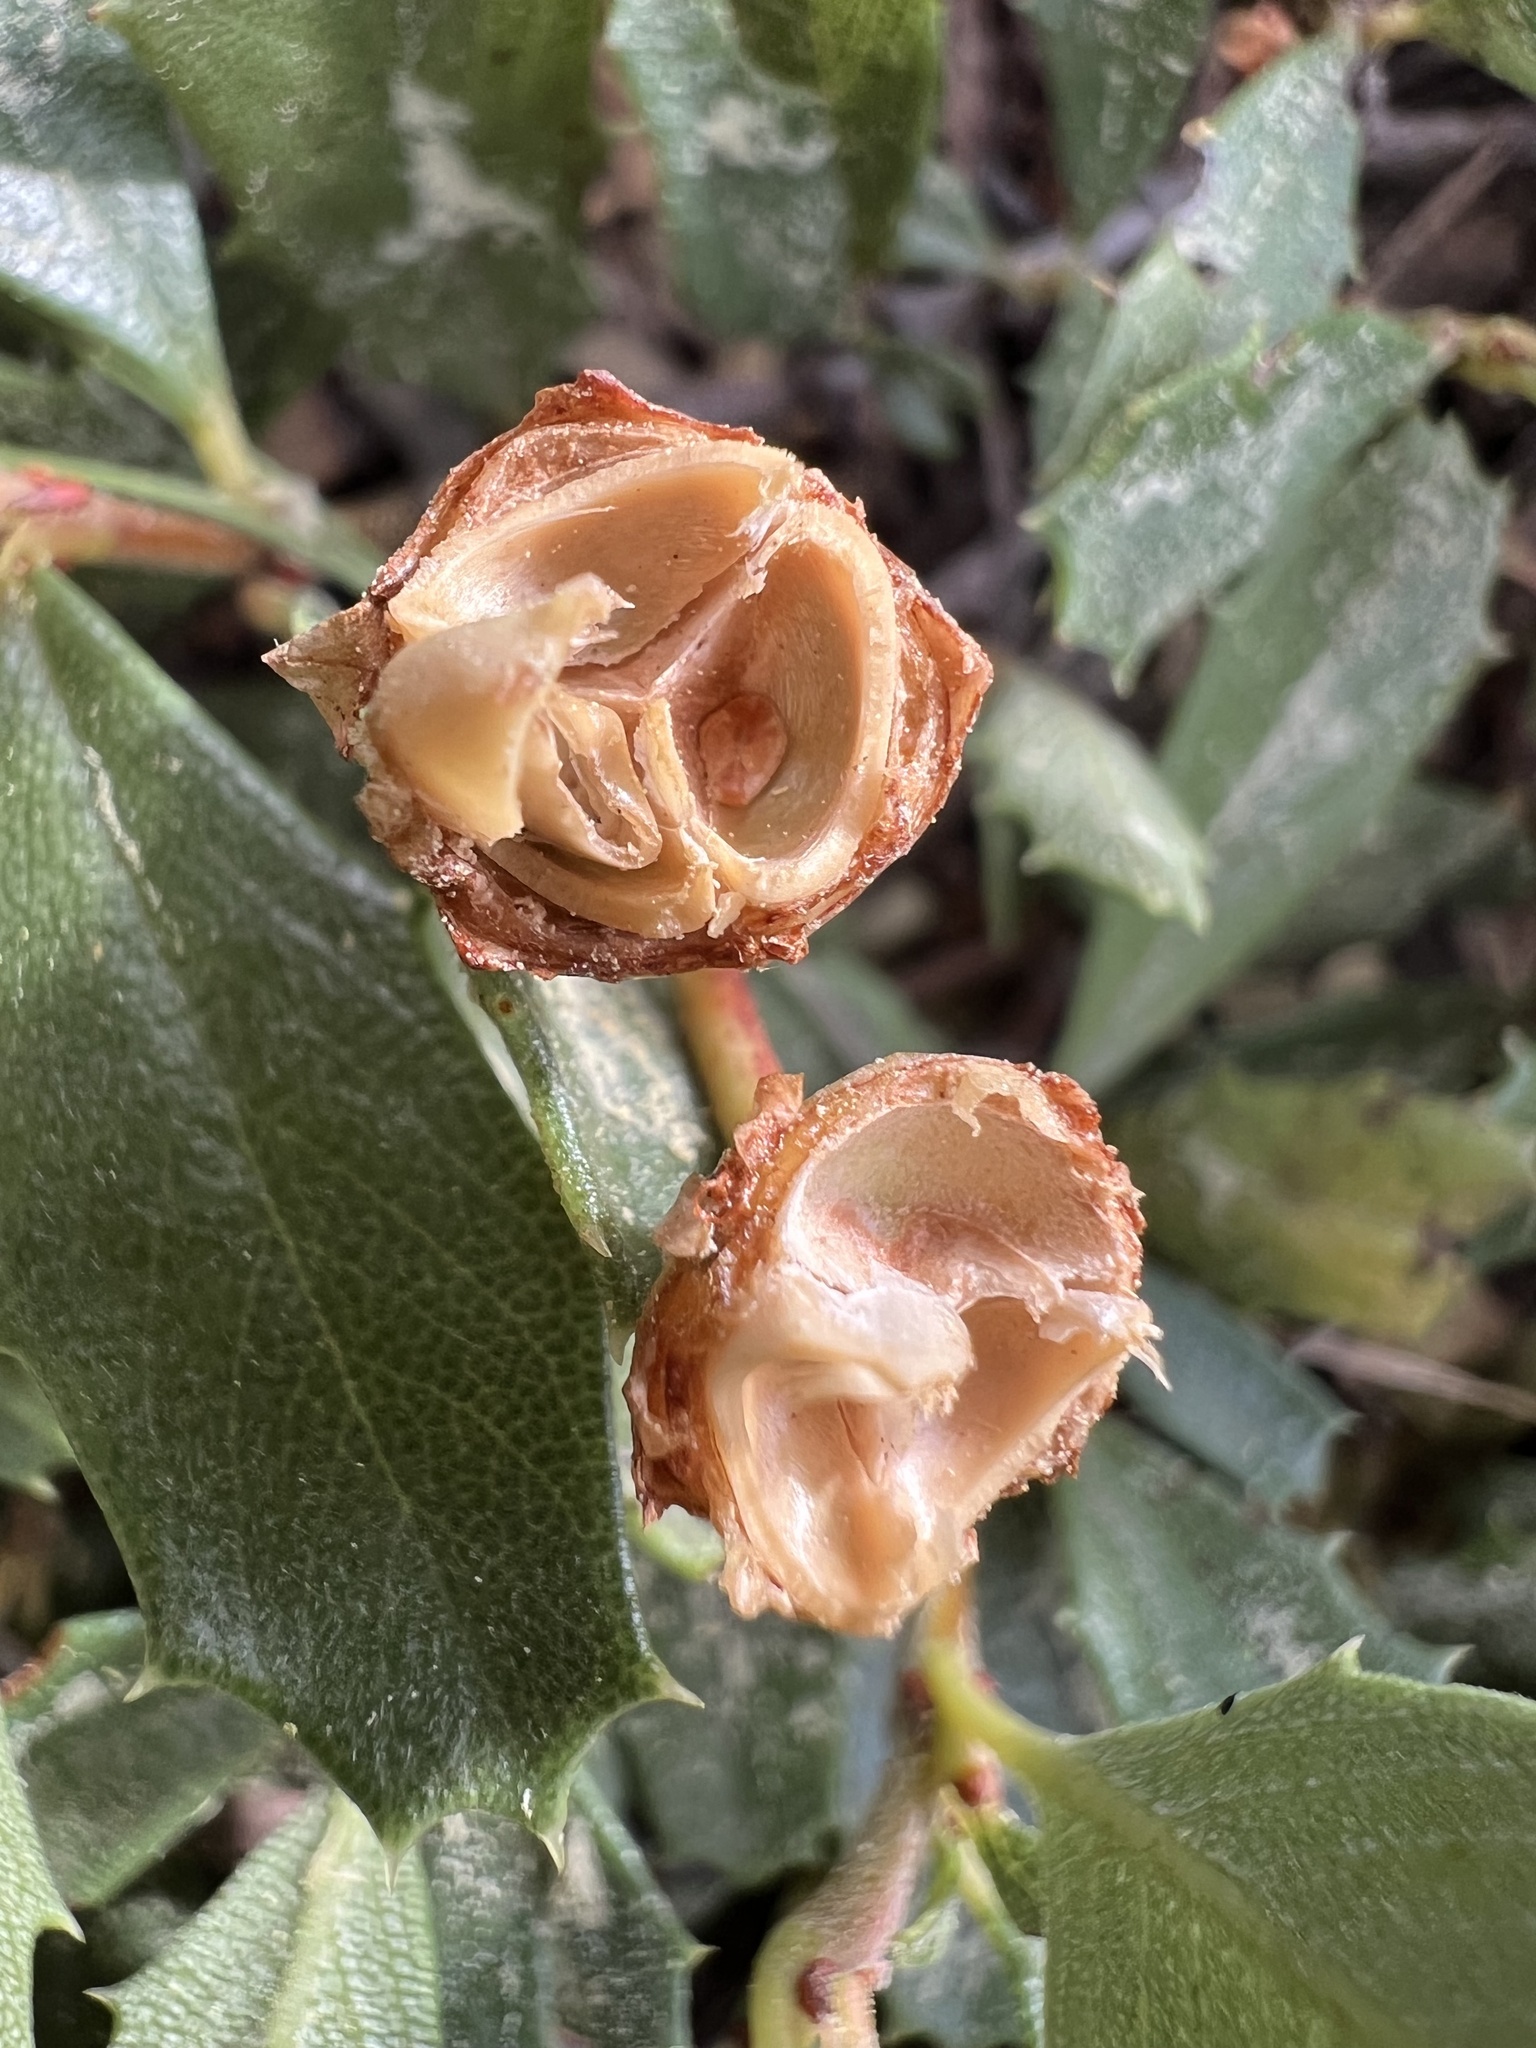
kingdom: Plantae
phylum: Tracheophyta
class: Magnoliopsida
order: Rosales
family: Rhamnaceae
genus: Ceanothus
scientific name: Ceanothus prostratus
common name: Mahala-mat
